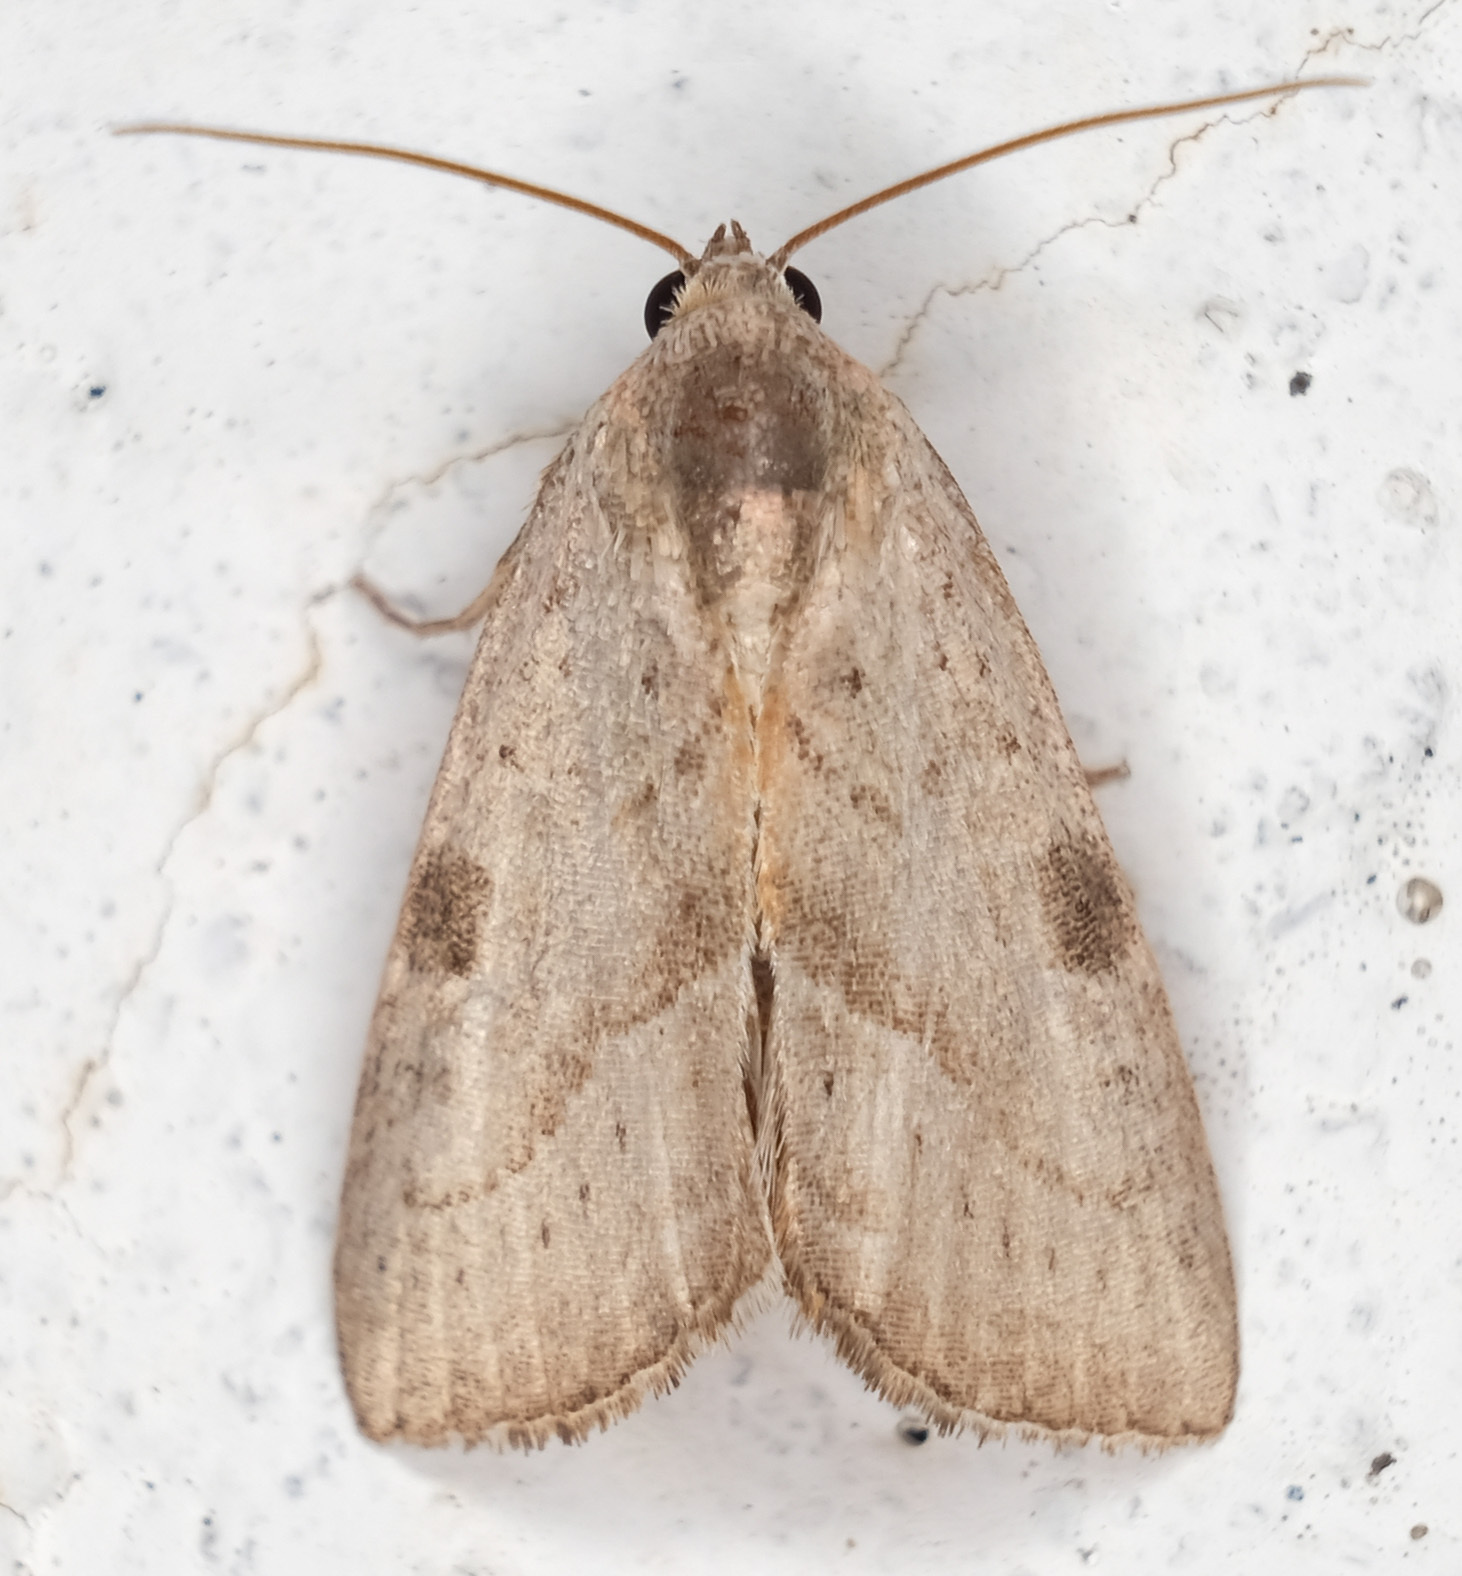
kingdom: Animalia
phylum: Arthropoda
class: Insecta
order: Lepidoptera
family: Noctuidae
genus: Galgula
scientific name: Galgula partita
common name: Wedgeling
